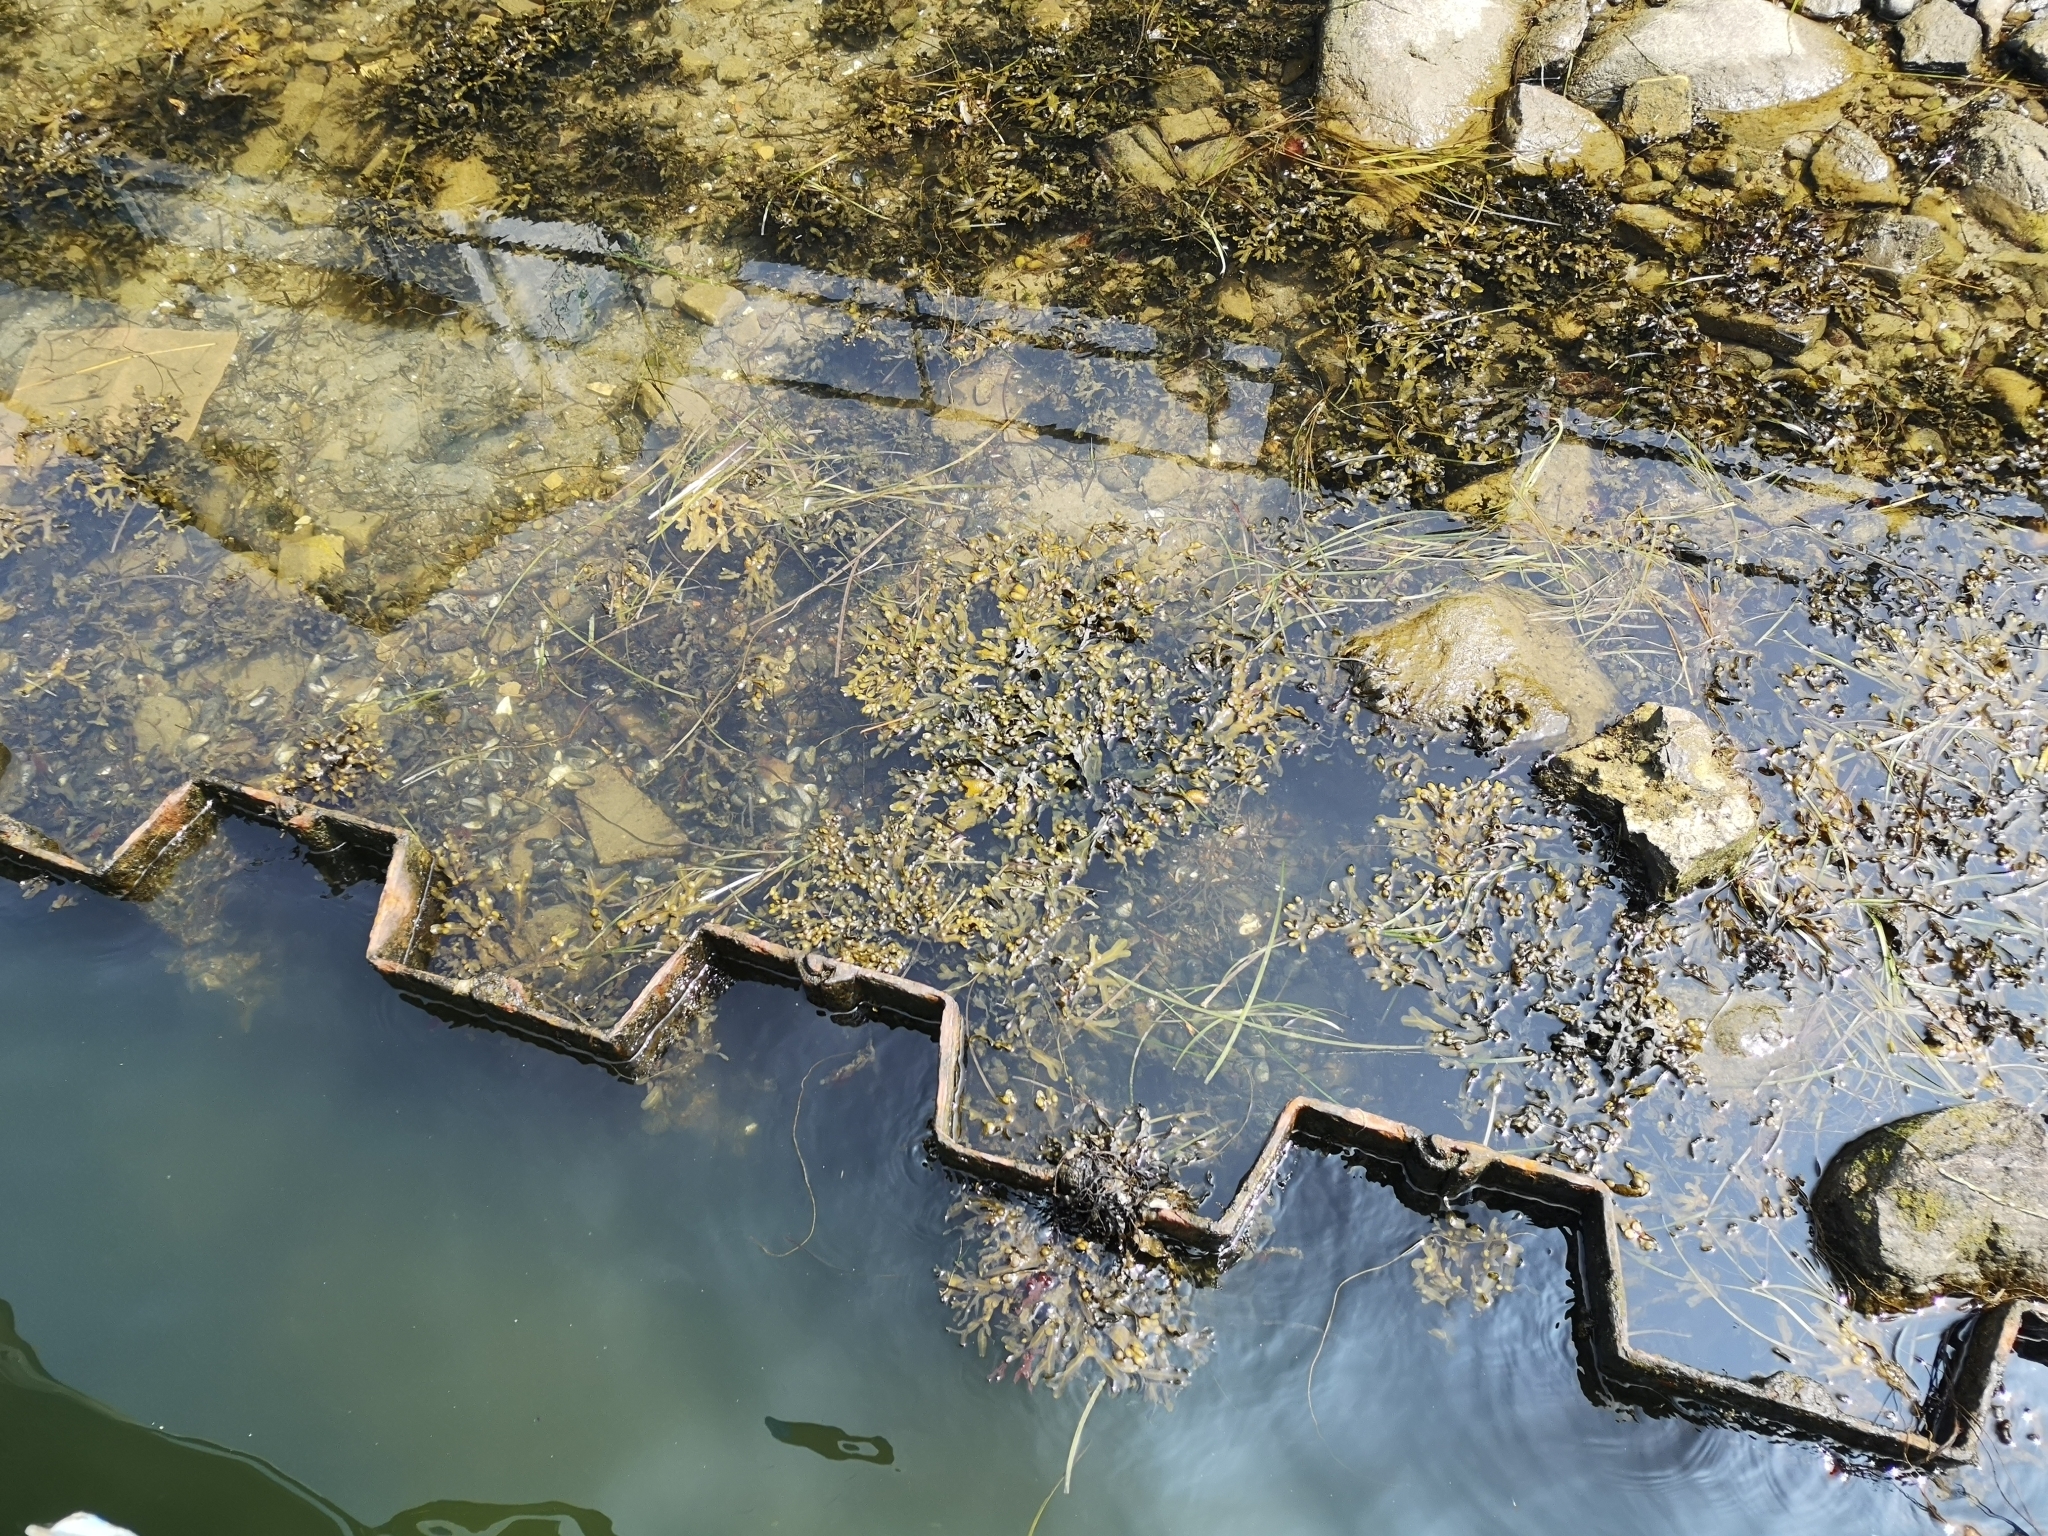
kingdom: Chromista
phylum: Ochrophyta
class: Phaeophyceae
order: Fucales
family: Fucaceae
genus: Fucus
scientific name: Fucus vesiculosus
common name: Bladder wrack
